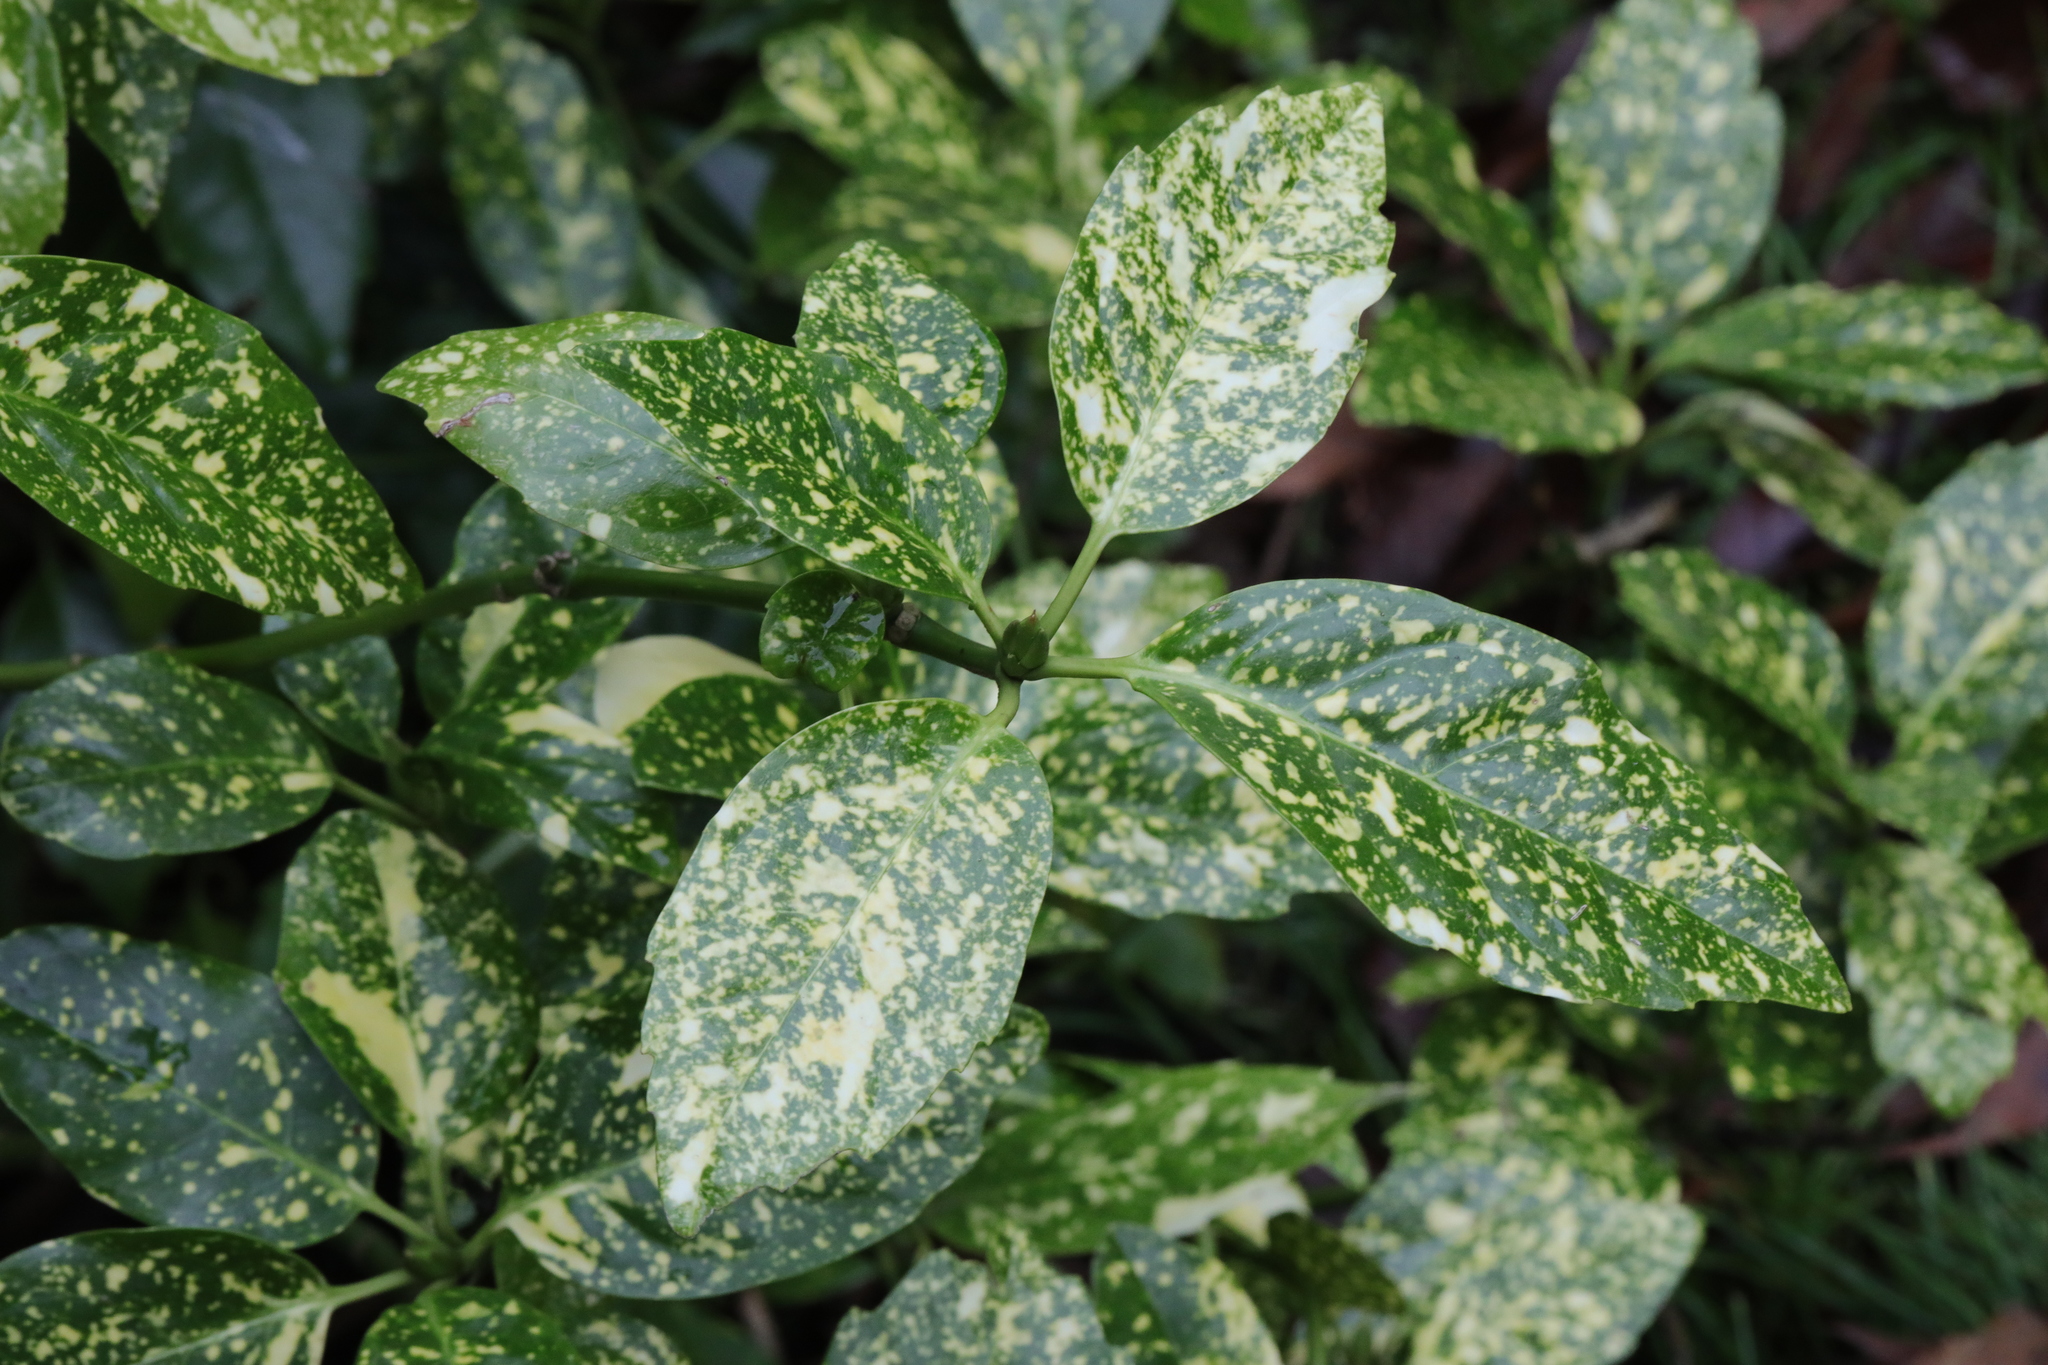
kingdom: Plantae
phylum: Tracheophyta
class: Magnoliopsida
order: Garryales
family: Garryaceae
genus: Aucuba
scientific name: Aucuba japonica
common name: Spotted-laurel
